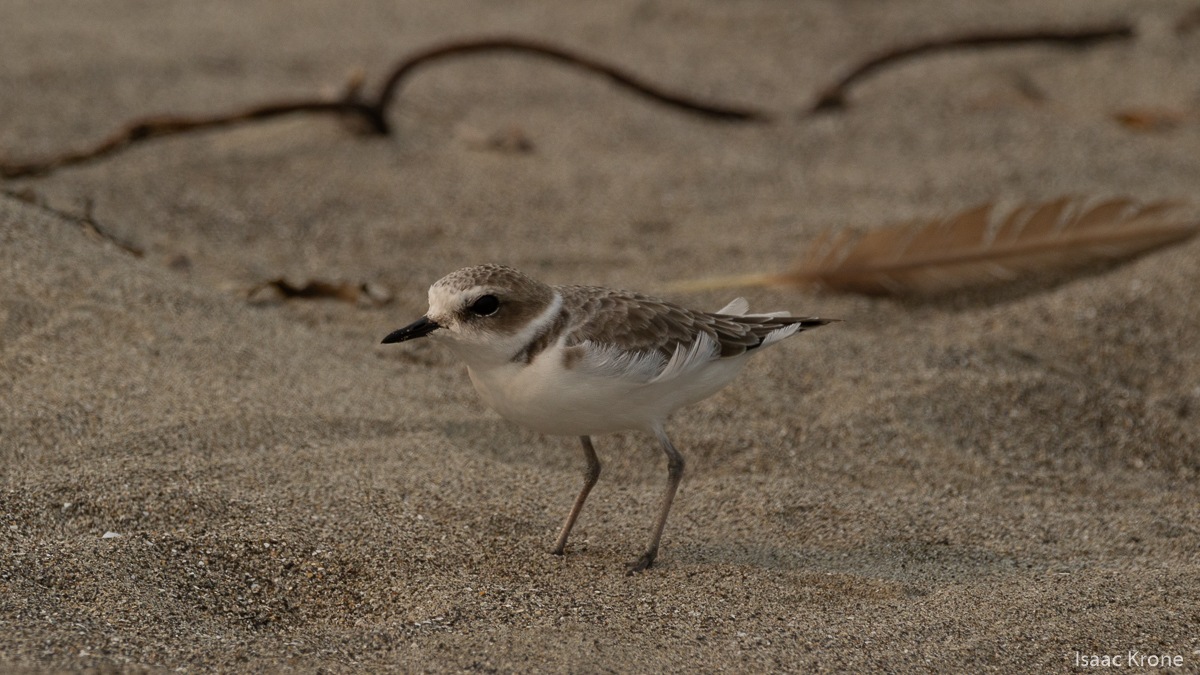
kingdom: Animalia
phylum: Chordata
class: Aves
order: Charadriiformes
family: Charadriidae
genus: Anarhynchus
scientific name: Anarhynchus
